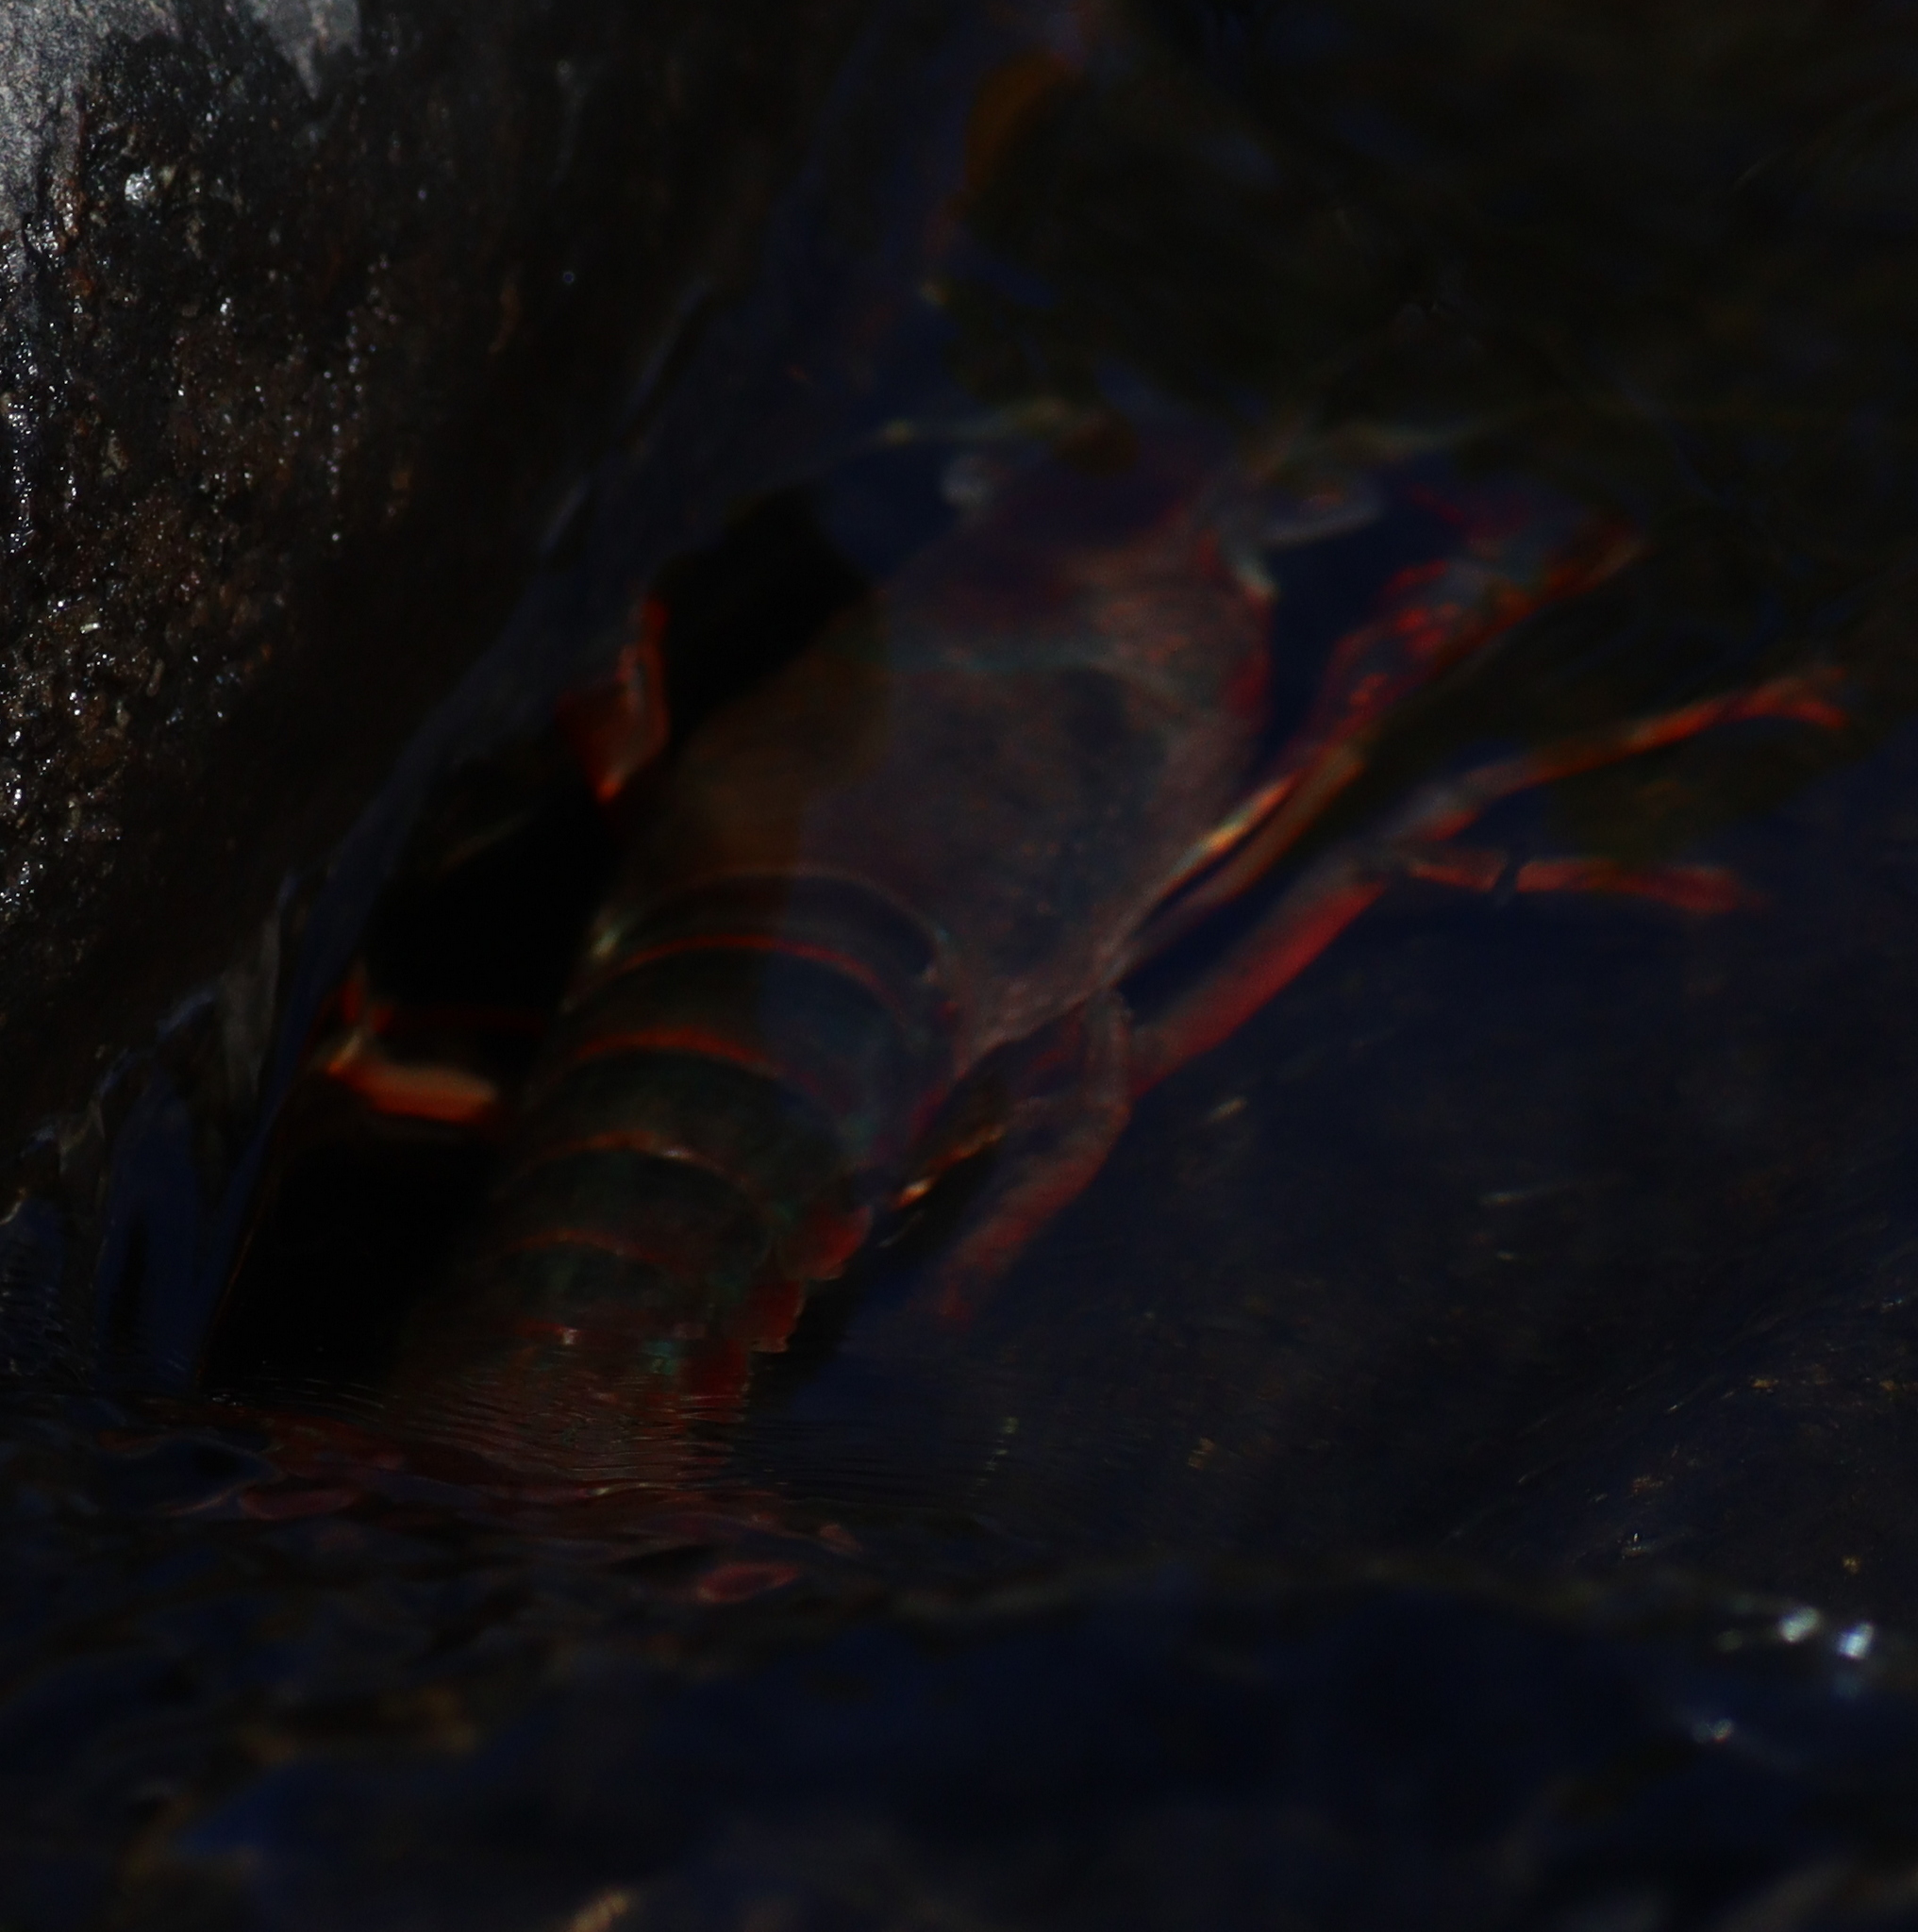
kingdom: Animalia
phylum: Arthropoda
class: Malacostraca
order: Decapoda
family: Cambaridae
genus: Procambarus
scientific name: Procambarus clarkii
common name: Red swamp crayfish
